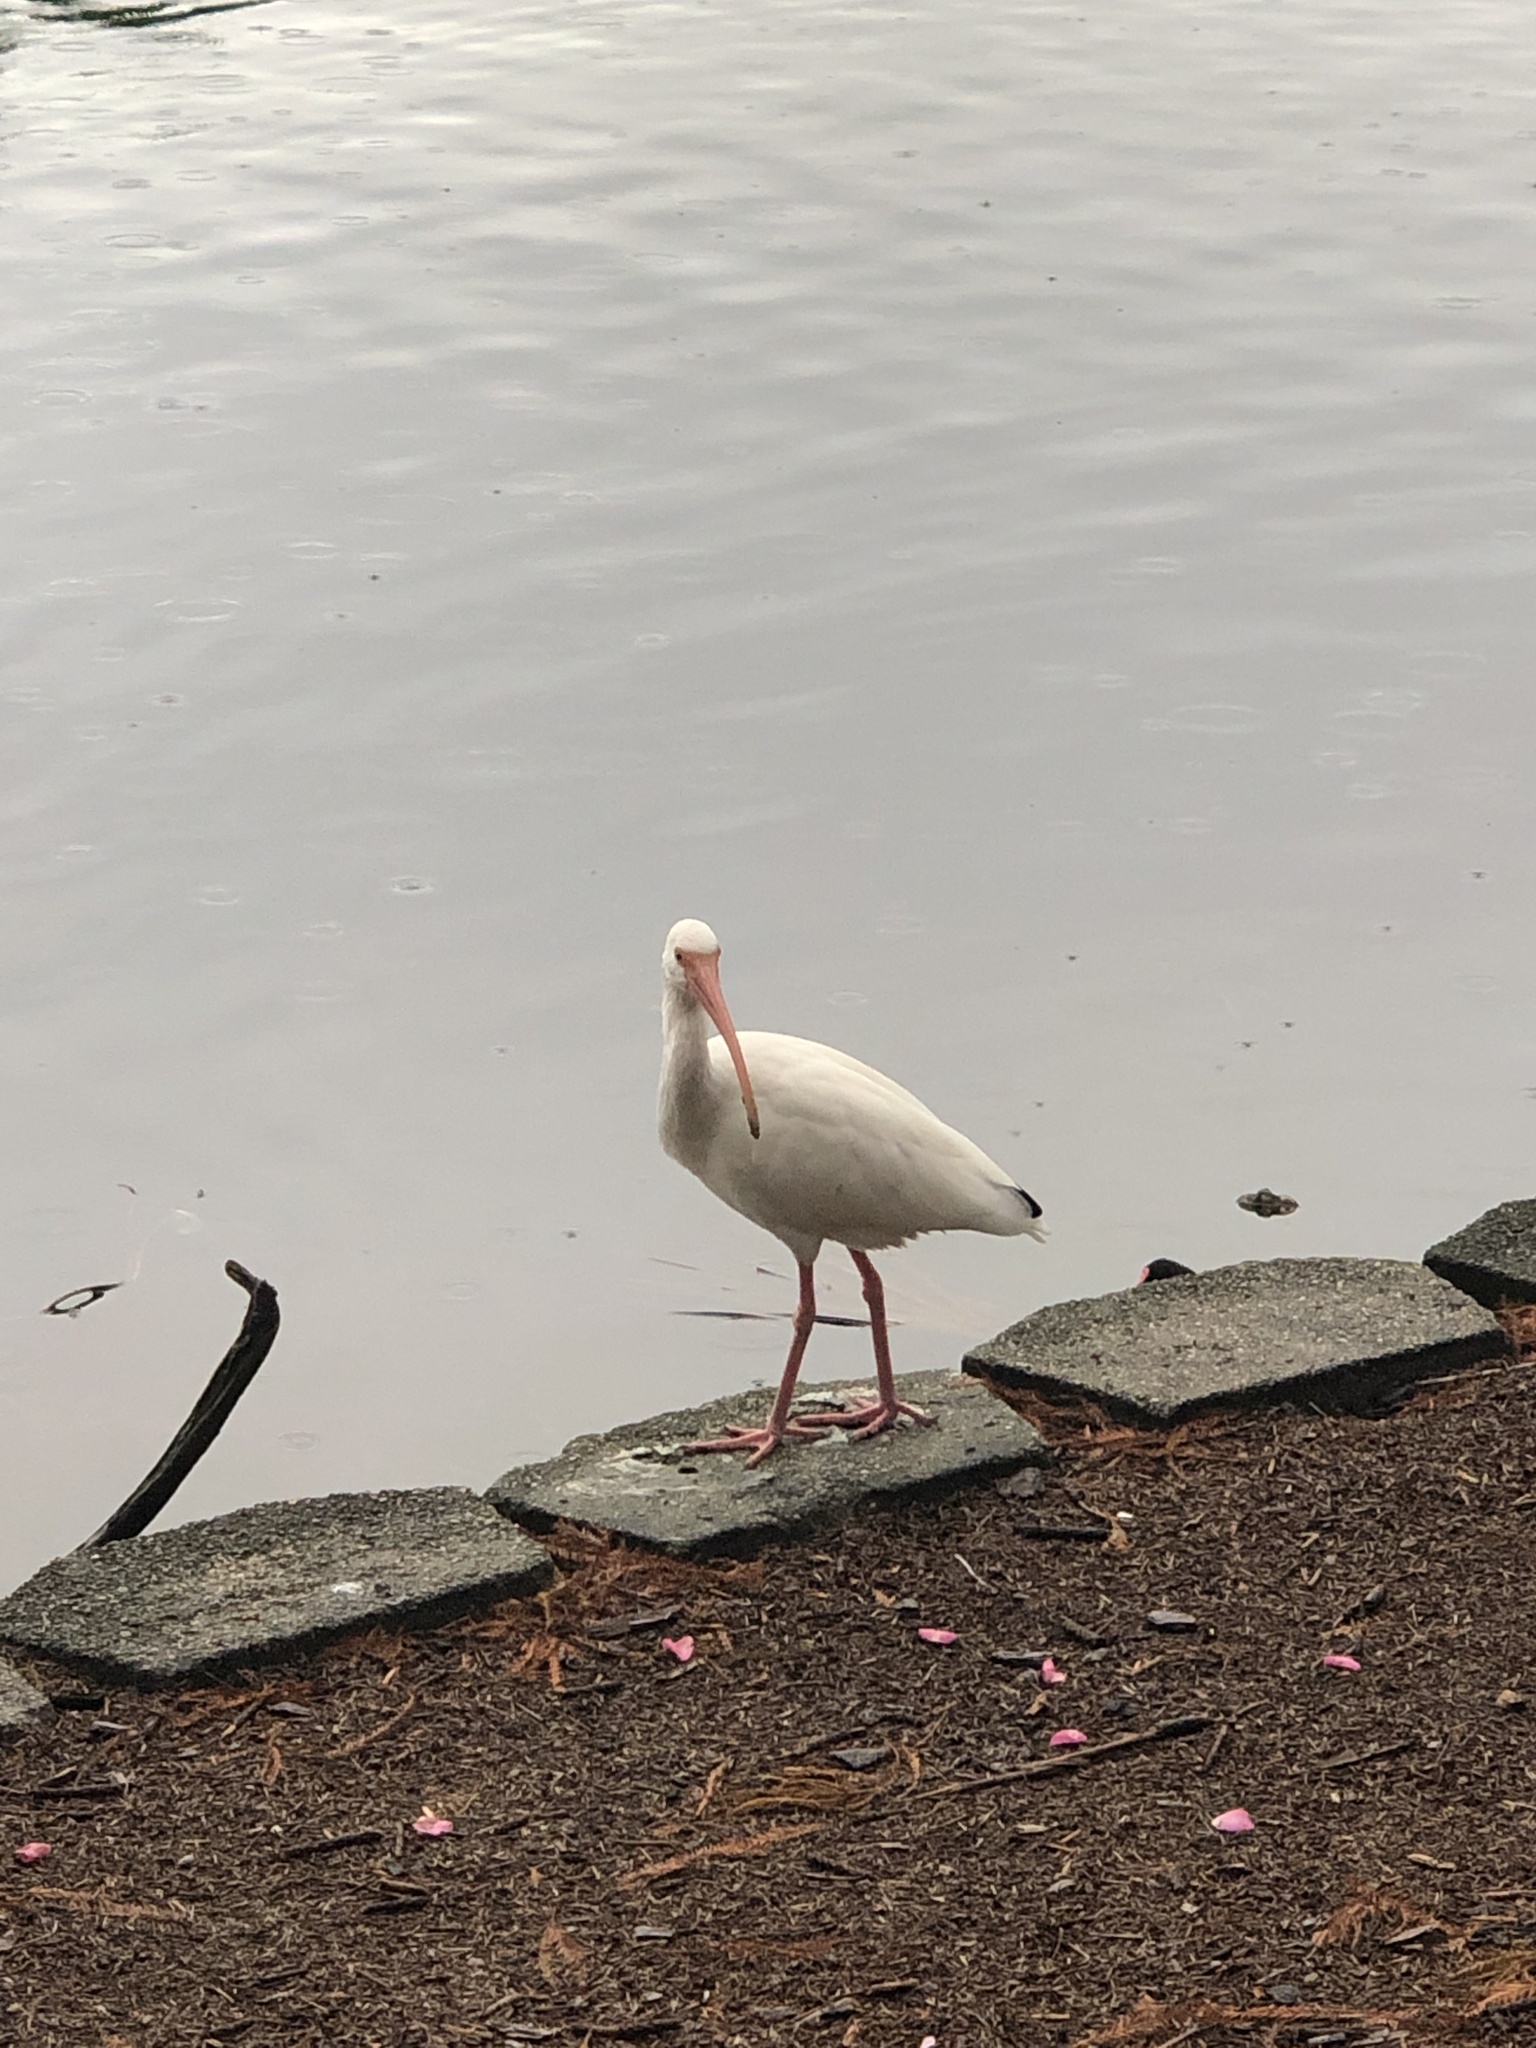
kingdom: Animalia
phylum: Chordata
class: Aves
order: Pelecaniformes
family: Threskiornithidae
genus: Eudocimus
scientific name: Eudocimus albus
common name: White ibis
